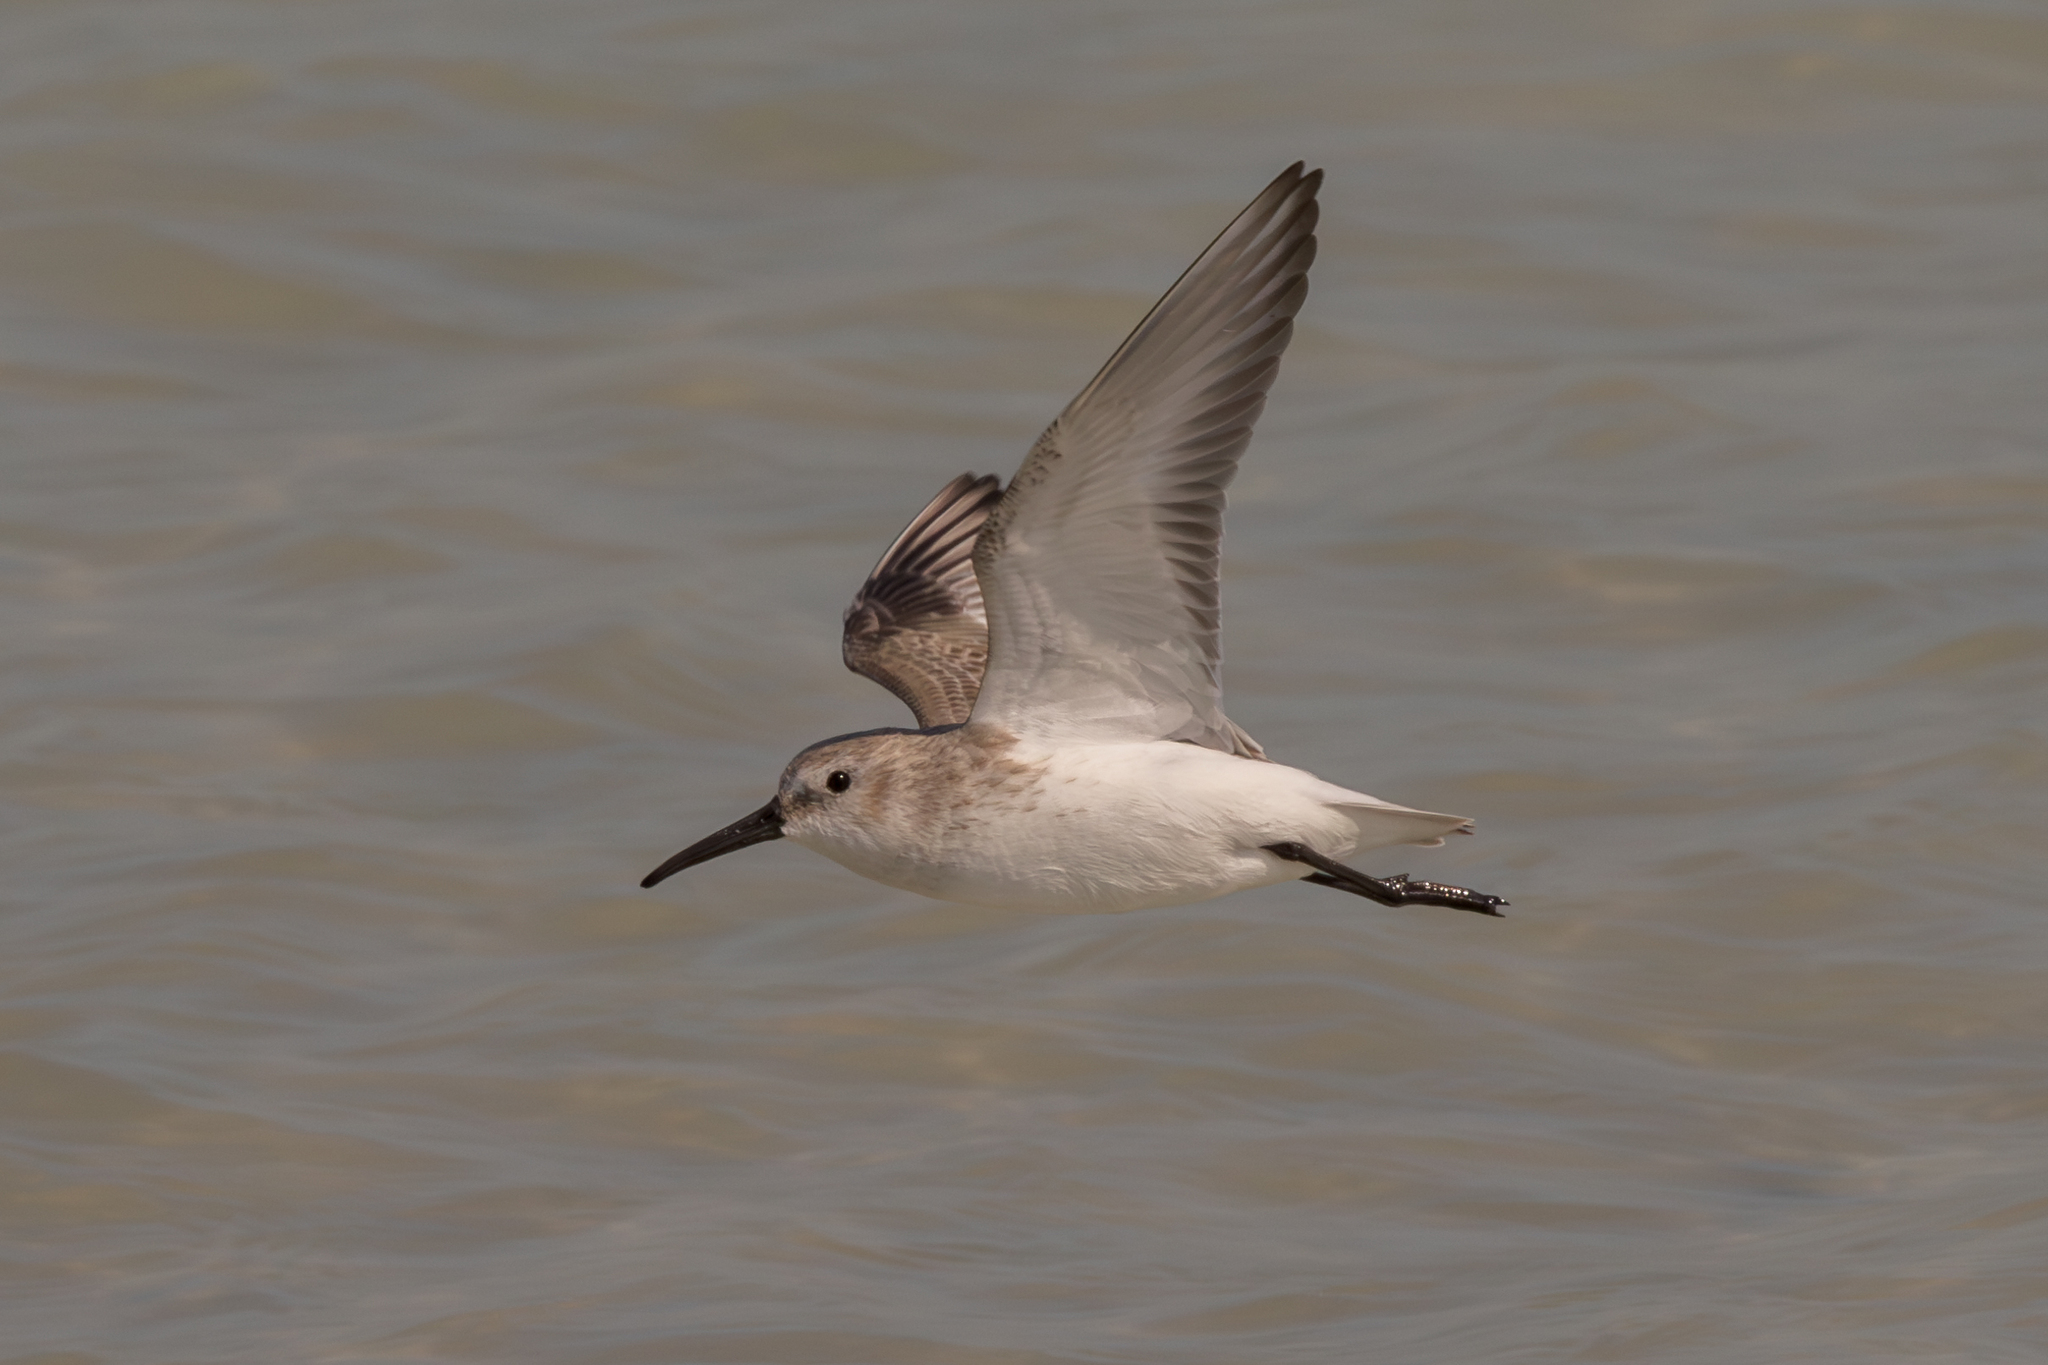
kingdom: Animalia
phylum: Chordata
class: Aves
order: Charadriiformes
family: Scolopacidae
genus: Calidris
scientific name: Calidris alpina
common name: Dunlin
